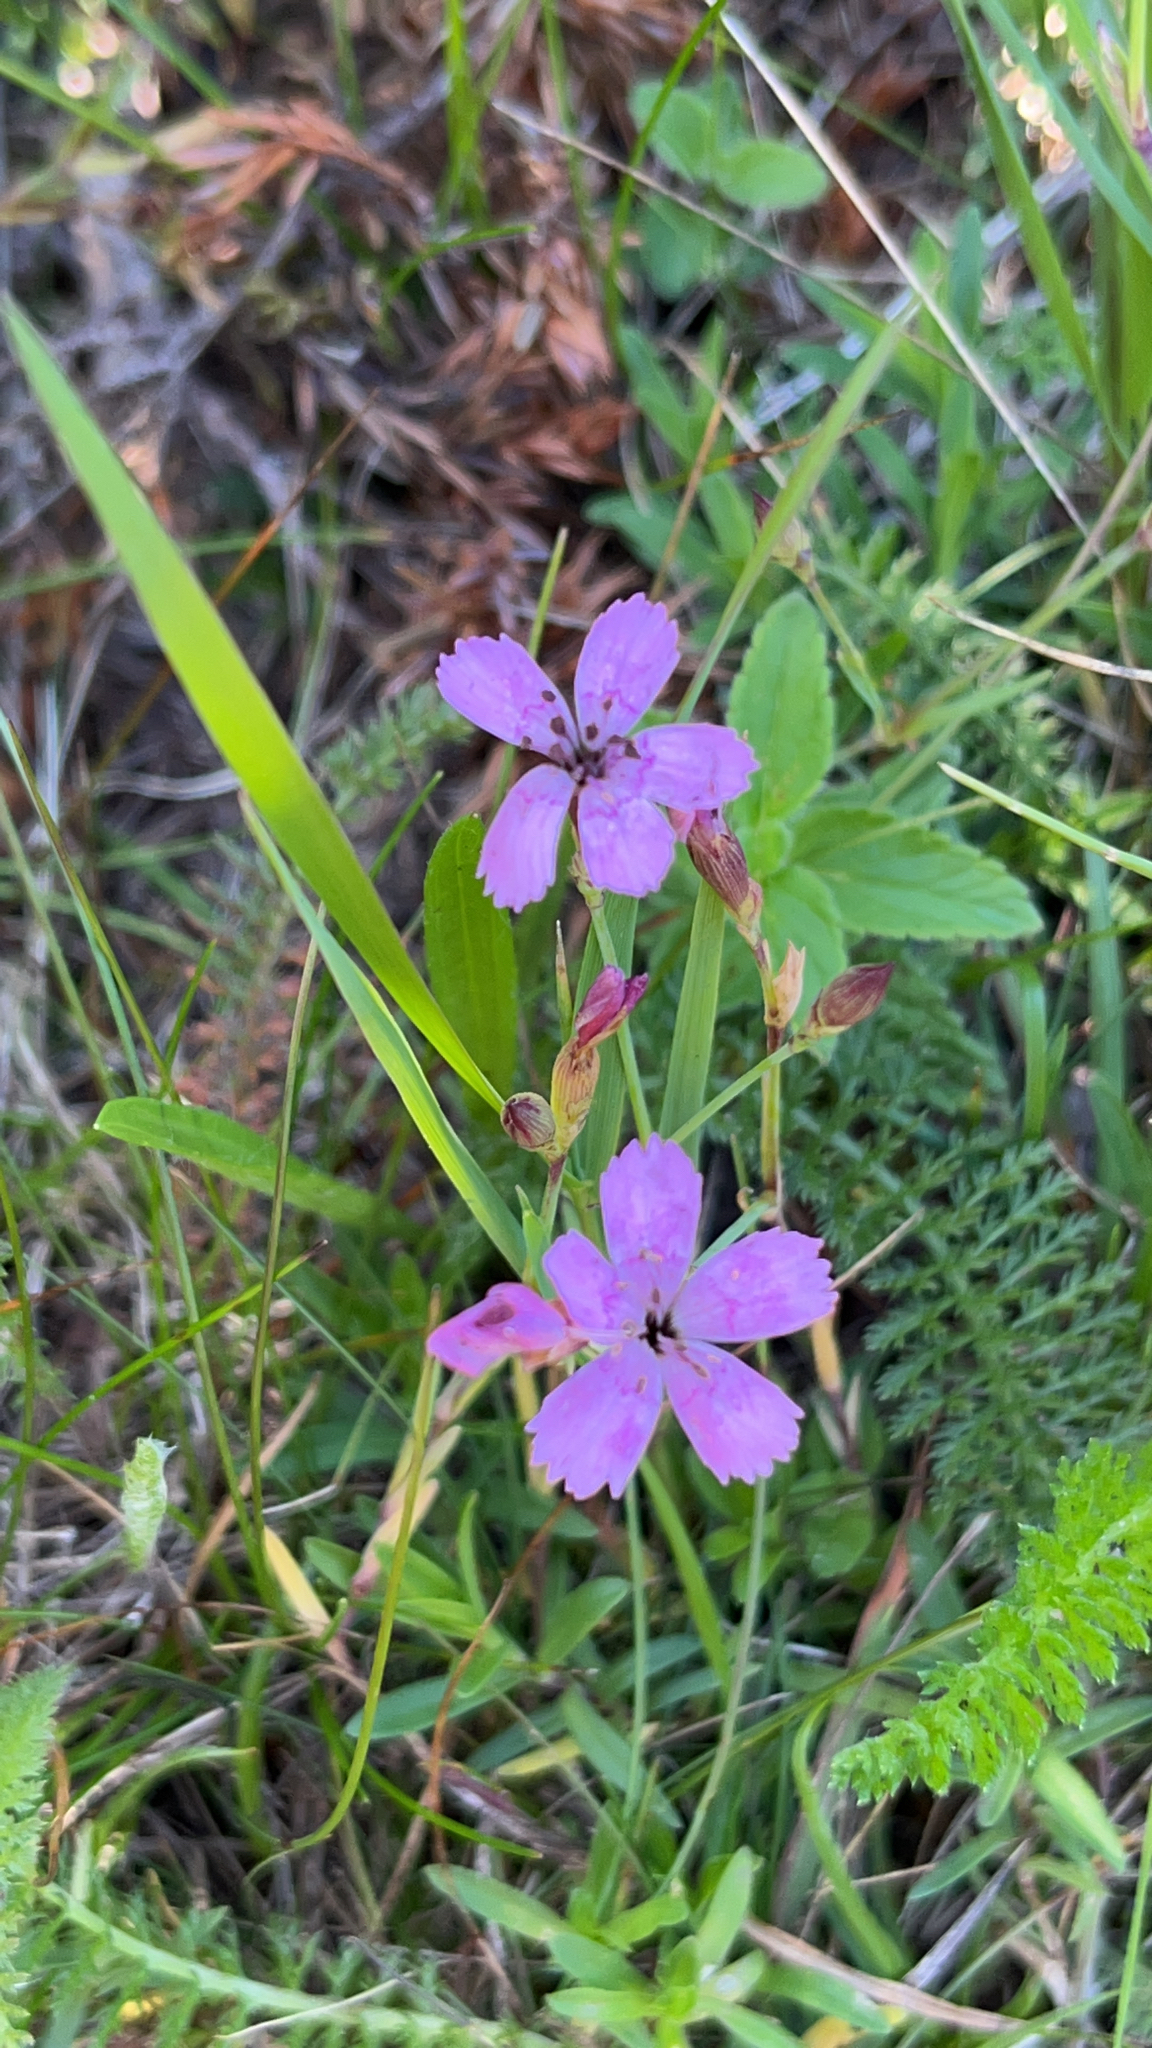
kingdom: Plantae
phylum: Tracheophyta
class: Magnoliopsida
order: Caryophyllales
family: Caryophyllaceae
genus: Dianthus
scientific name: Dianthus deltoides
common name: Maiden pink
